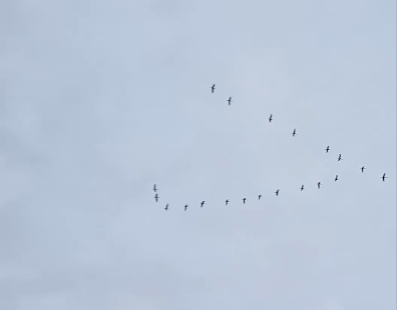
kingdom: Animalia
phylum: Chordata
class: Aves
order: Gruiformes
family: Gruidae
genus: Grus
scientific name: Grus grus
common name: Common crane
